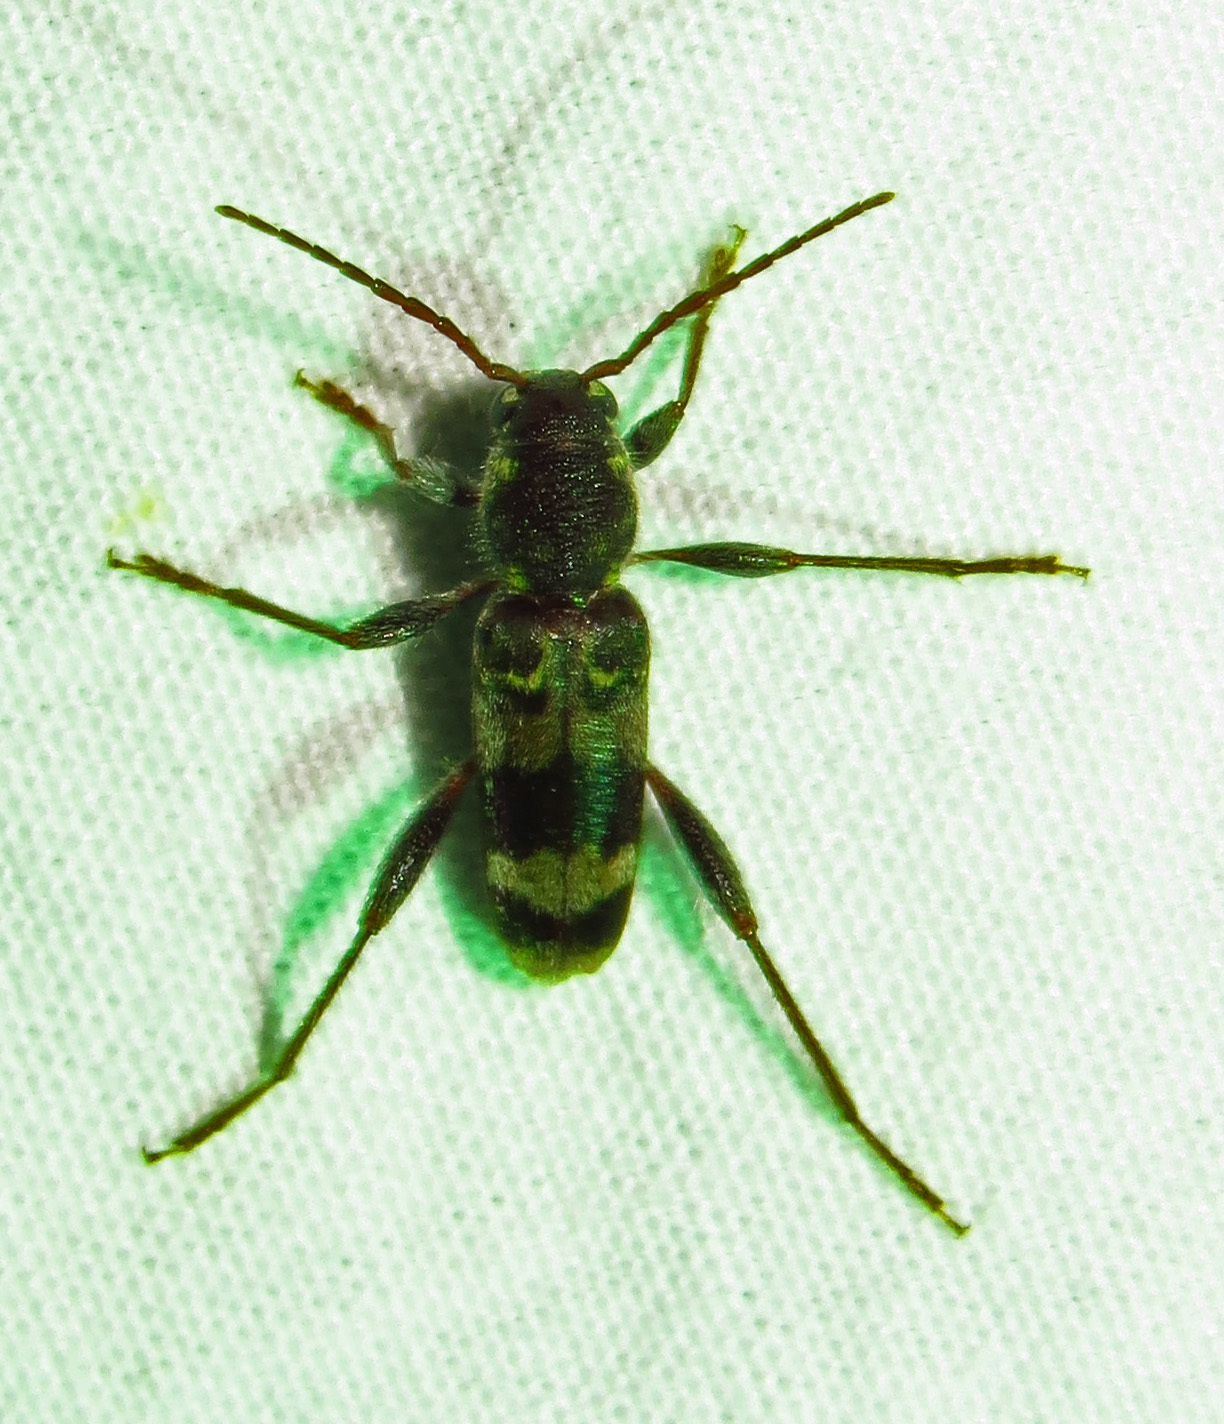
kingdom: Animalia
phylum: Arthropoda
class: Insecta
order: Coleoptera
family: Cerambycidae
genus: Xylotrechus
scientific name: Xylotrechus colonus
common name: Long-horned beetle
